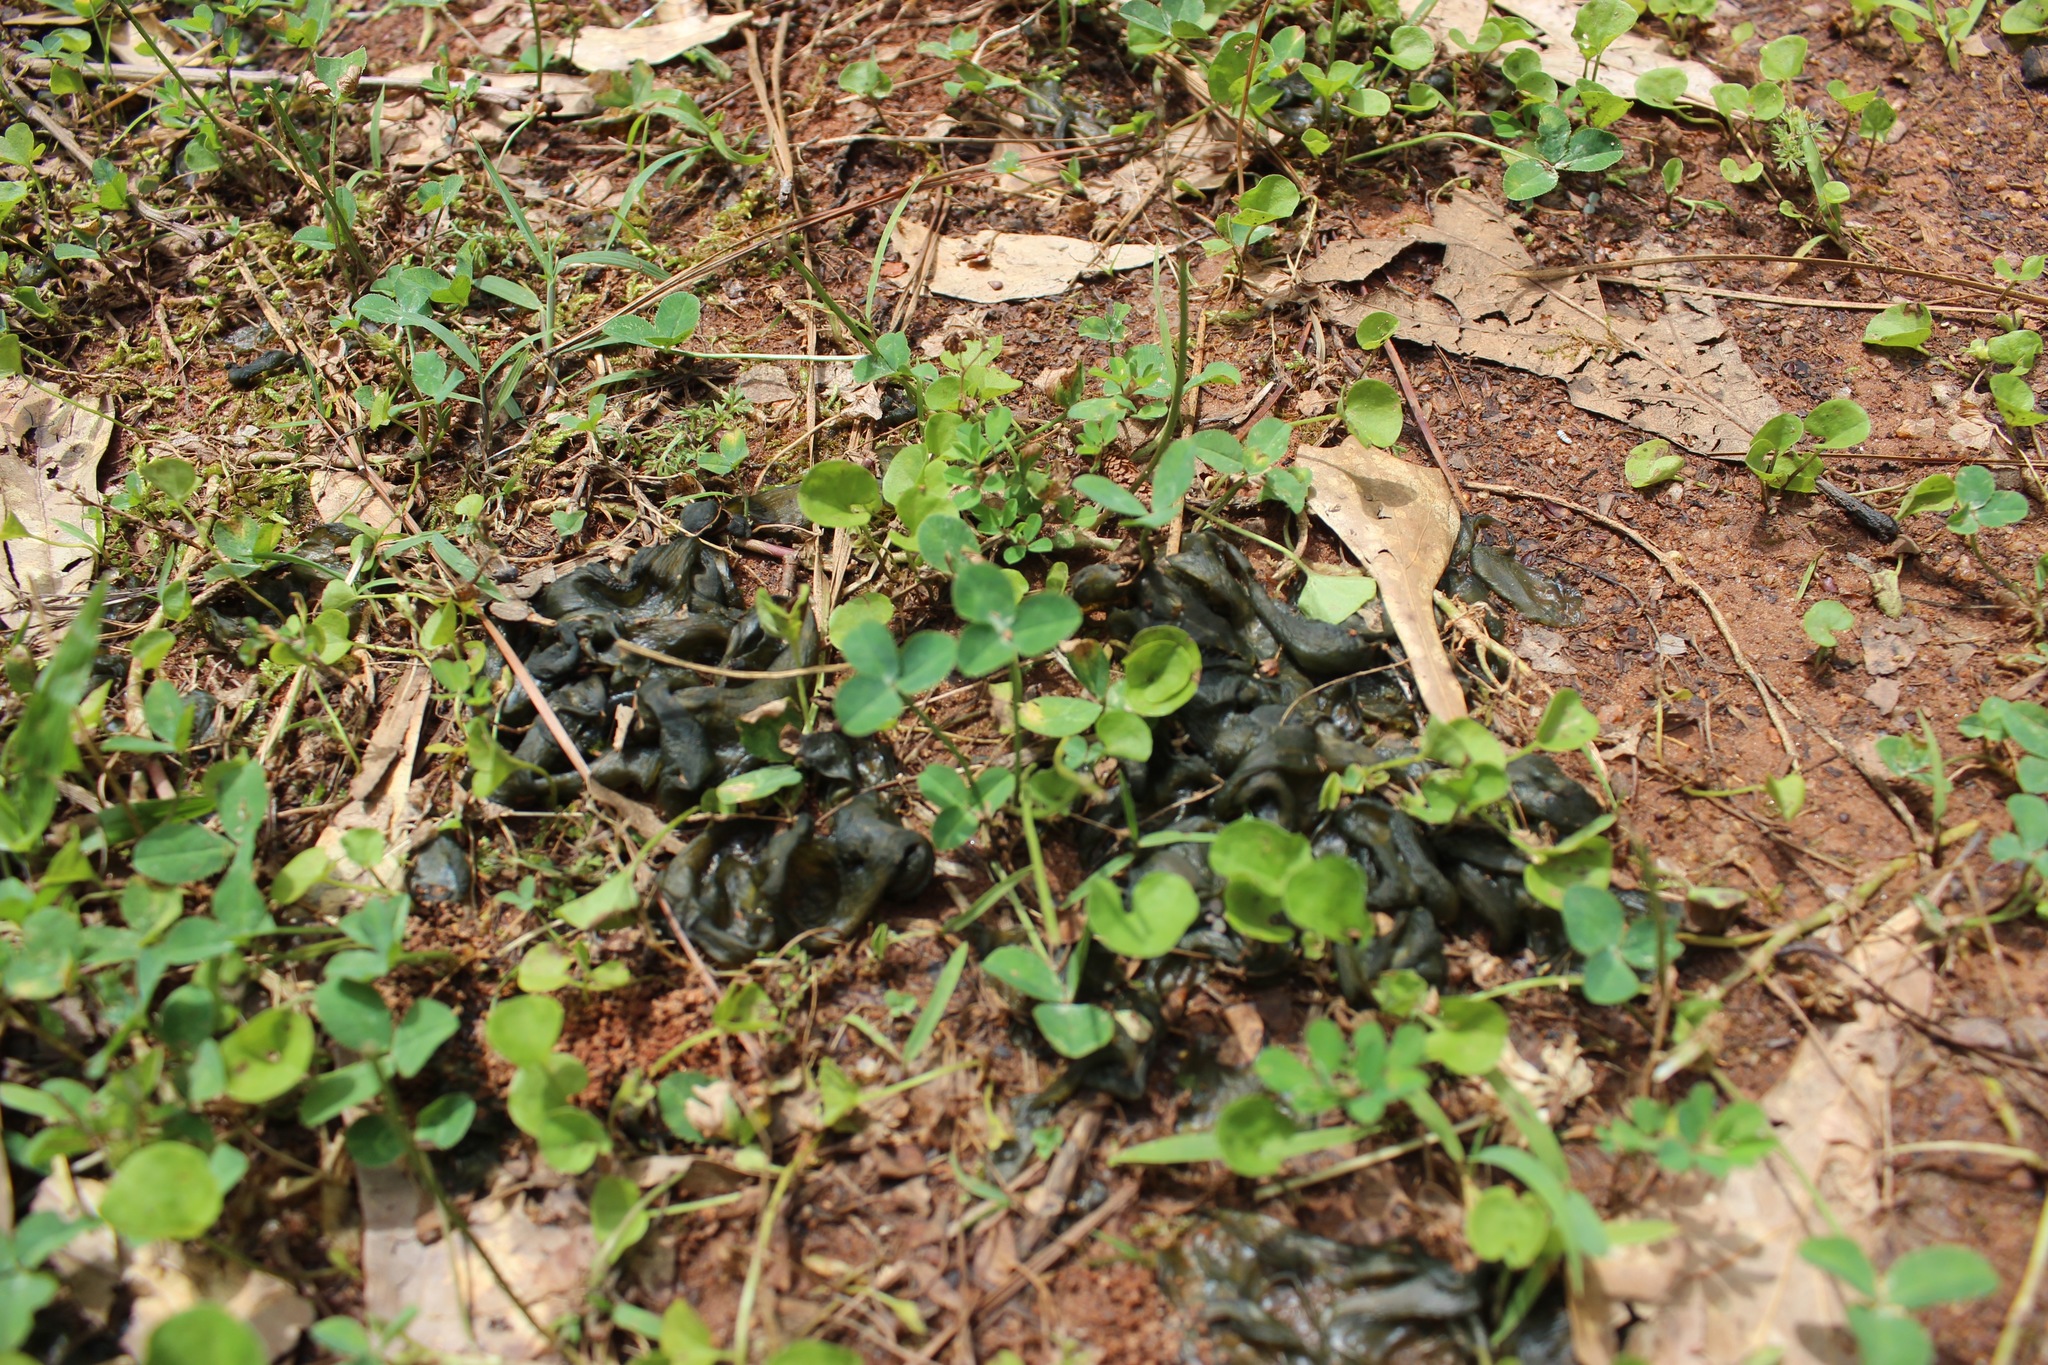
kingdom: Bacteria
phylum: Cyanobacteria
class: Cyanobacteriia
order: Cyanobacteriales
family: Nostocaceae
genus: Nostoc
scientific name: Nostoc commune
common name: Star jelly
